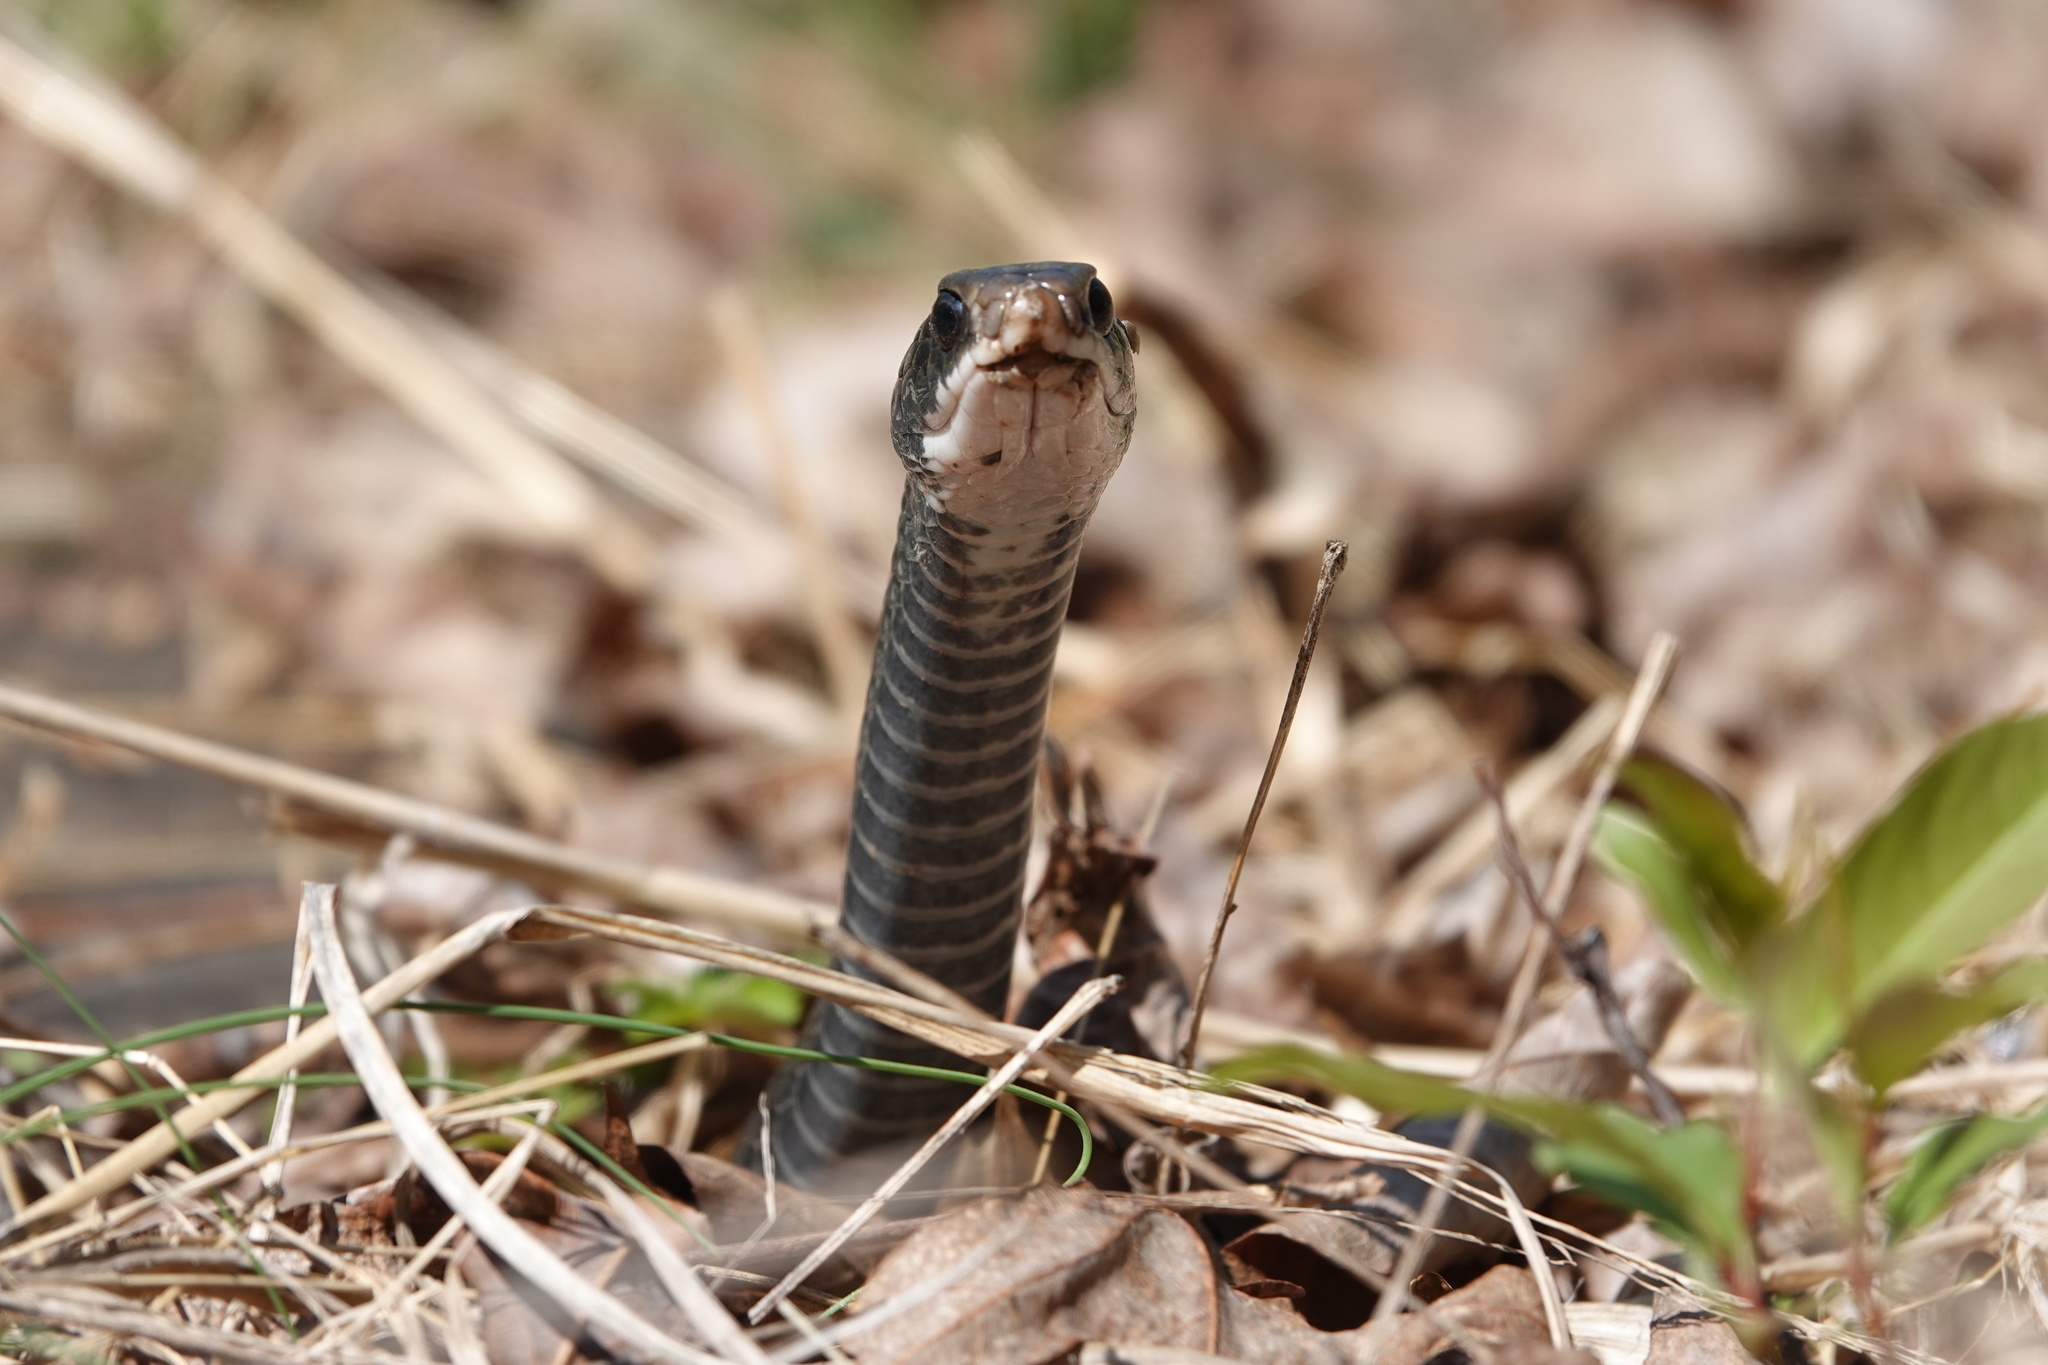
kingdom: Animalia
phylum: Chordata
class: Squamata
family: Colubridae
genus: Coluber
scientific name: Coluber constrictor
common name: Eastern racer
